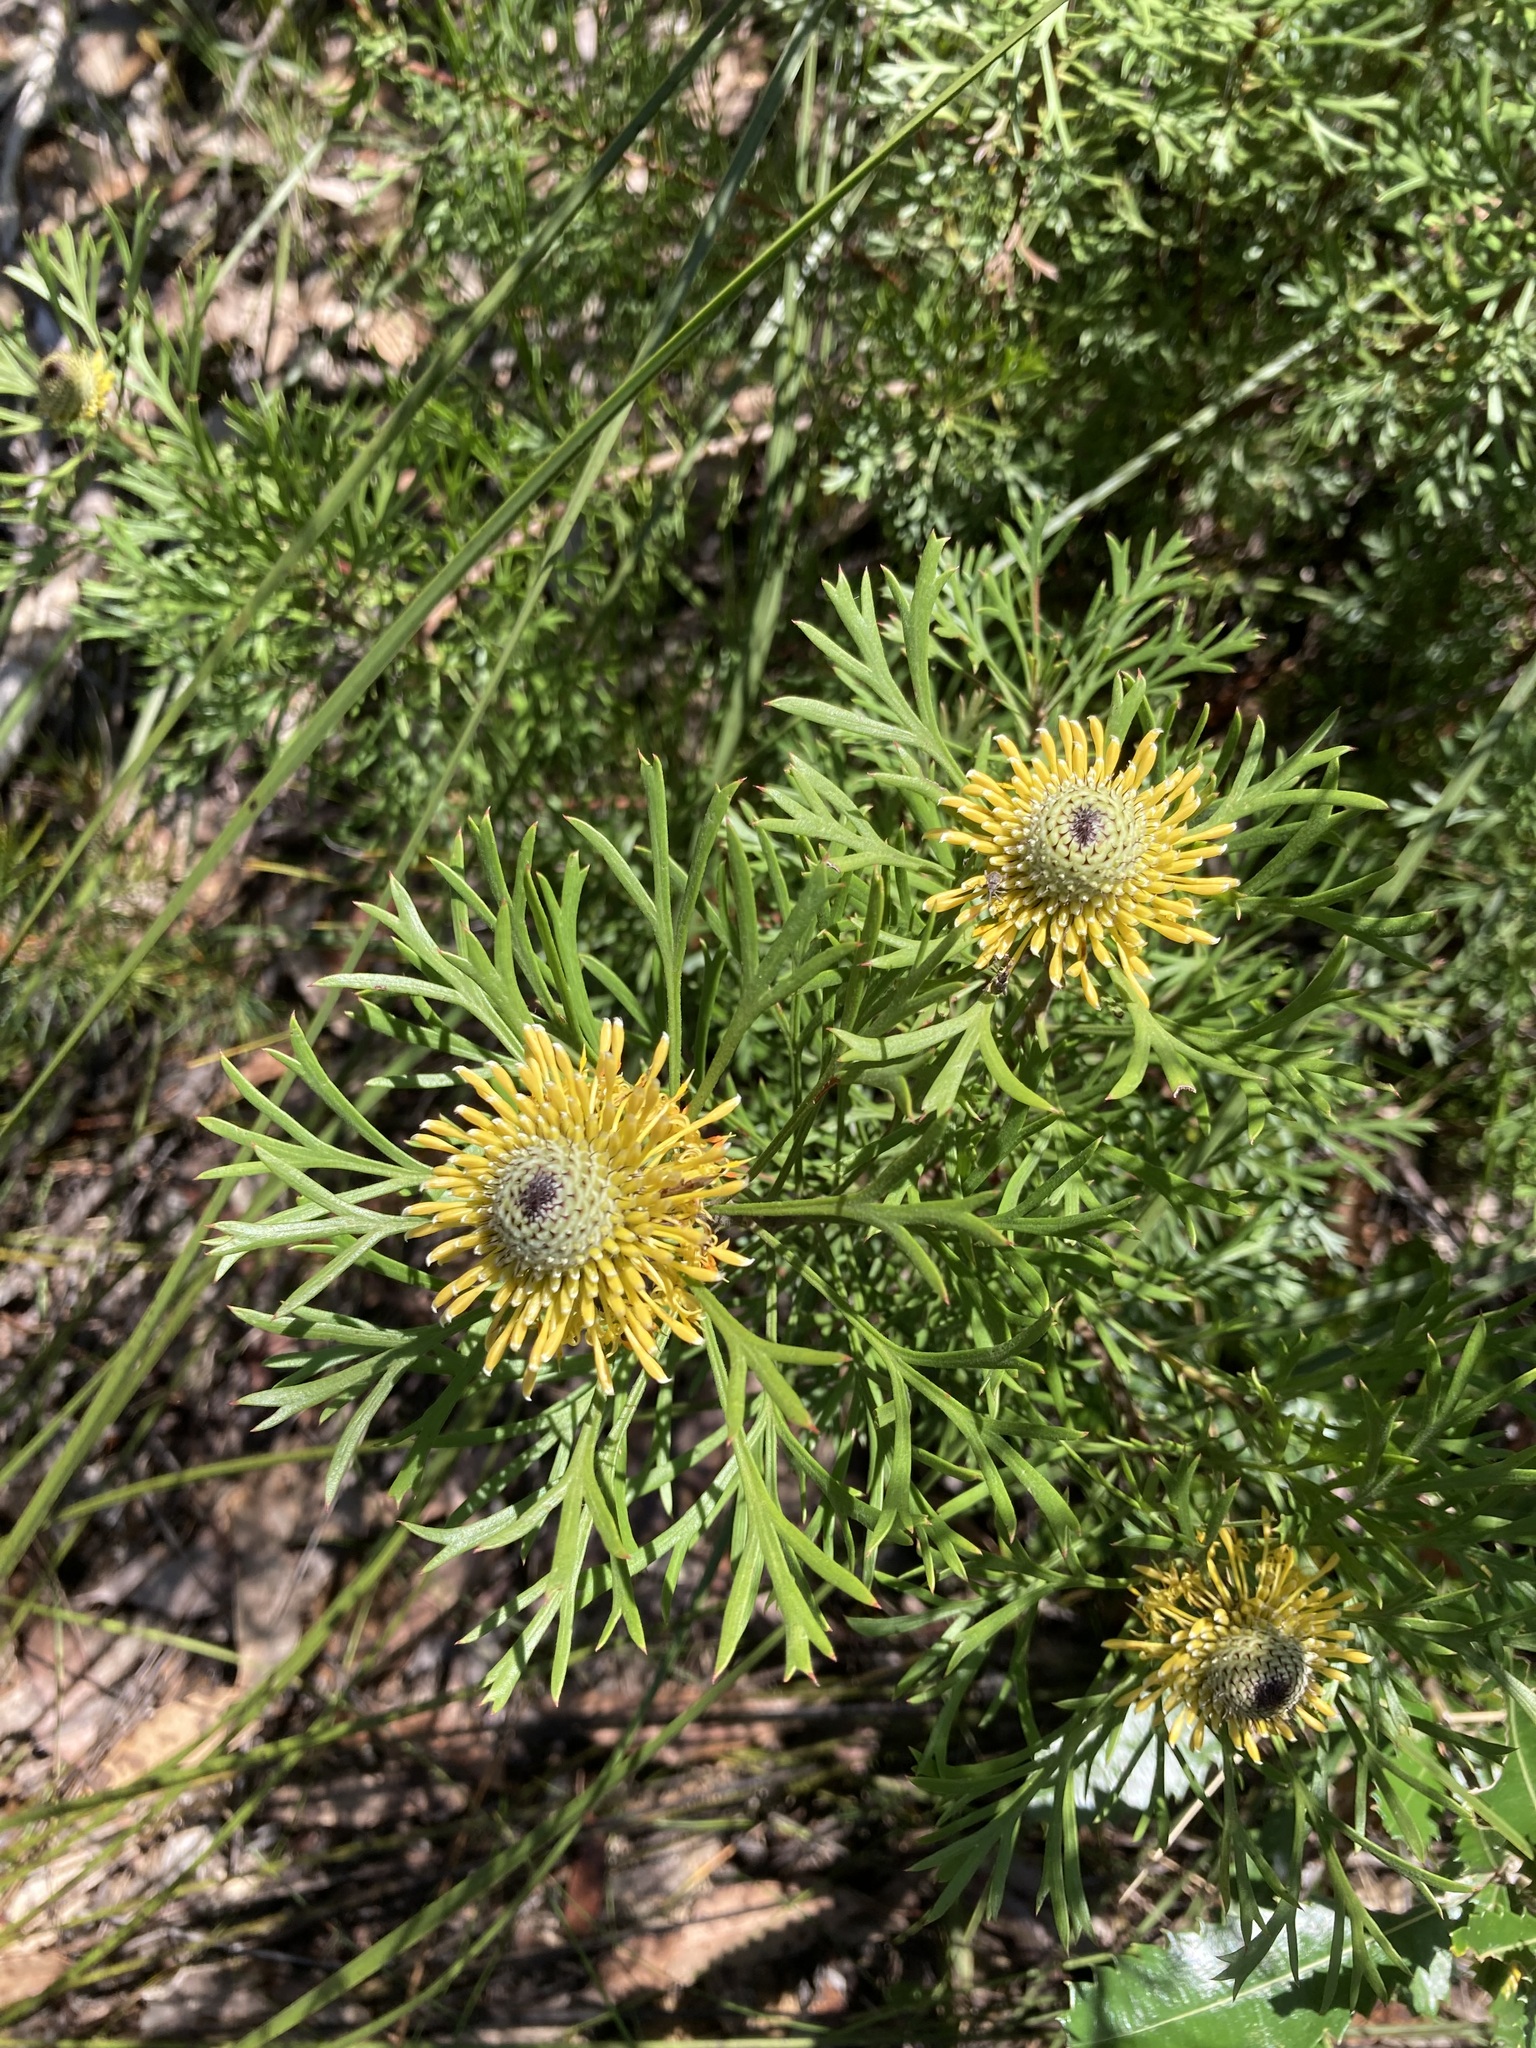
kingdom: Plantae
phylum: Tracheophyta
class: Magnoliopsida
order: Proteales
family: Proteaceae
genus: Isopogon
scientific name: Isopogon anemonifolius
